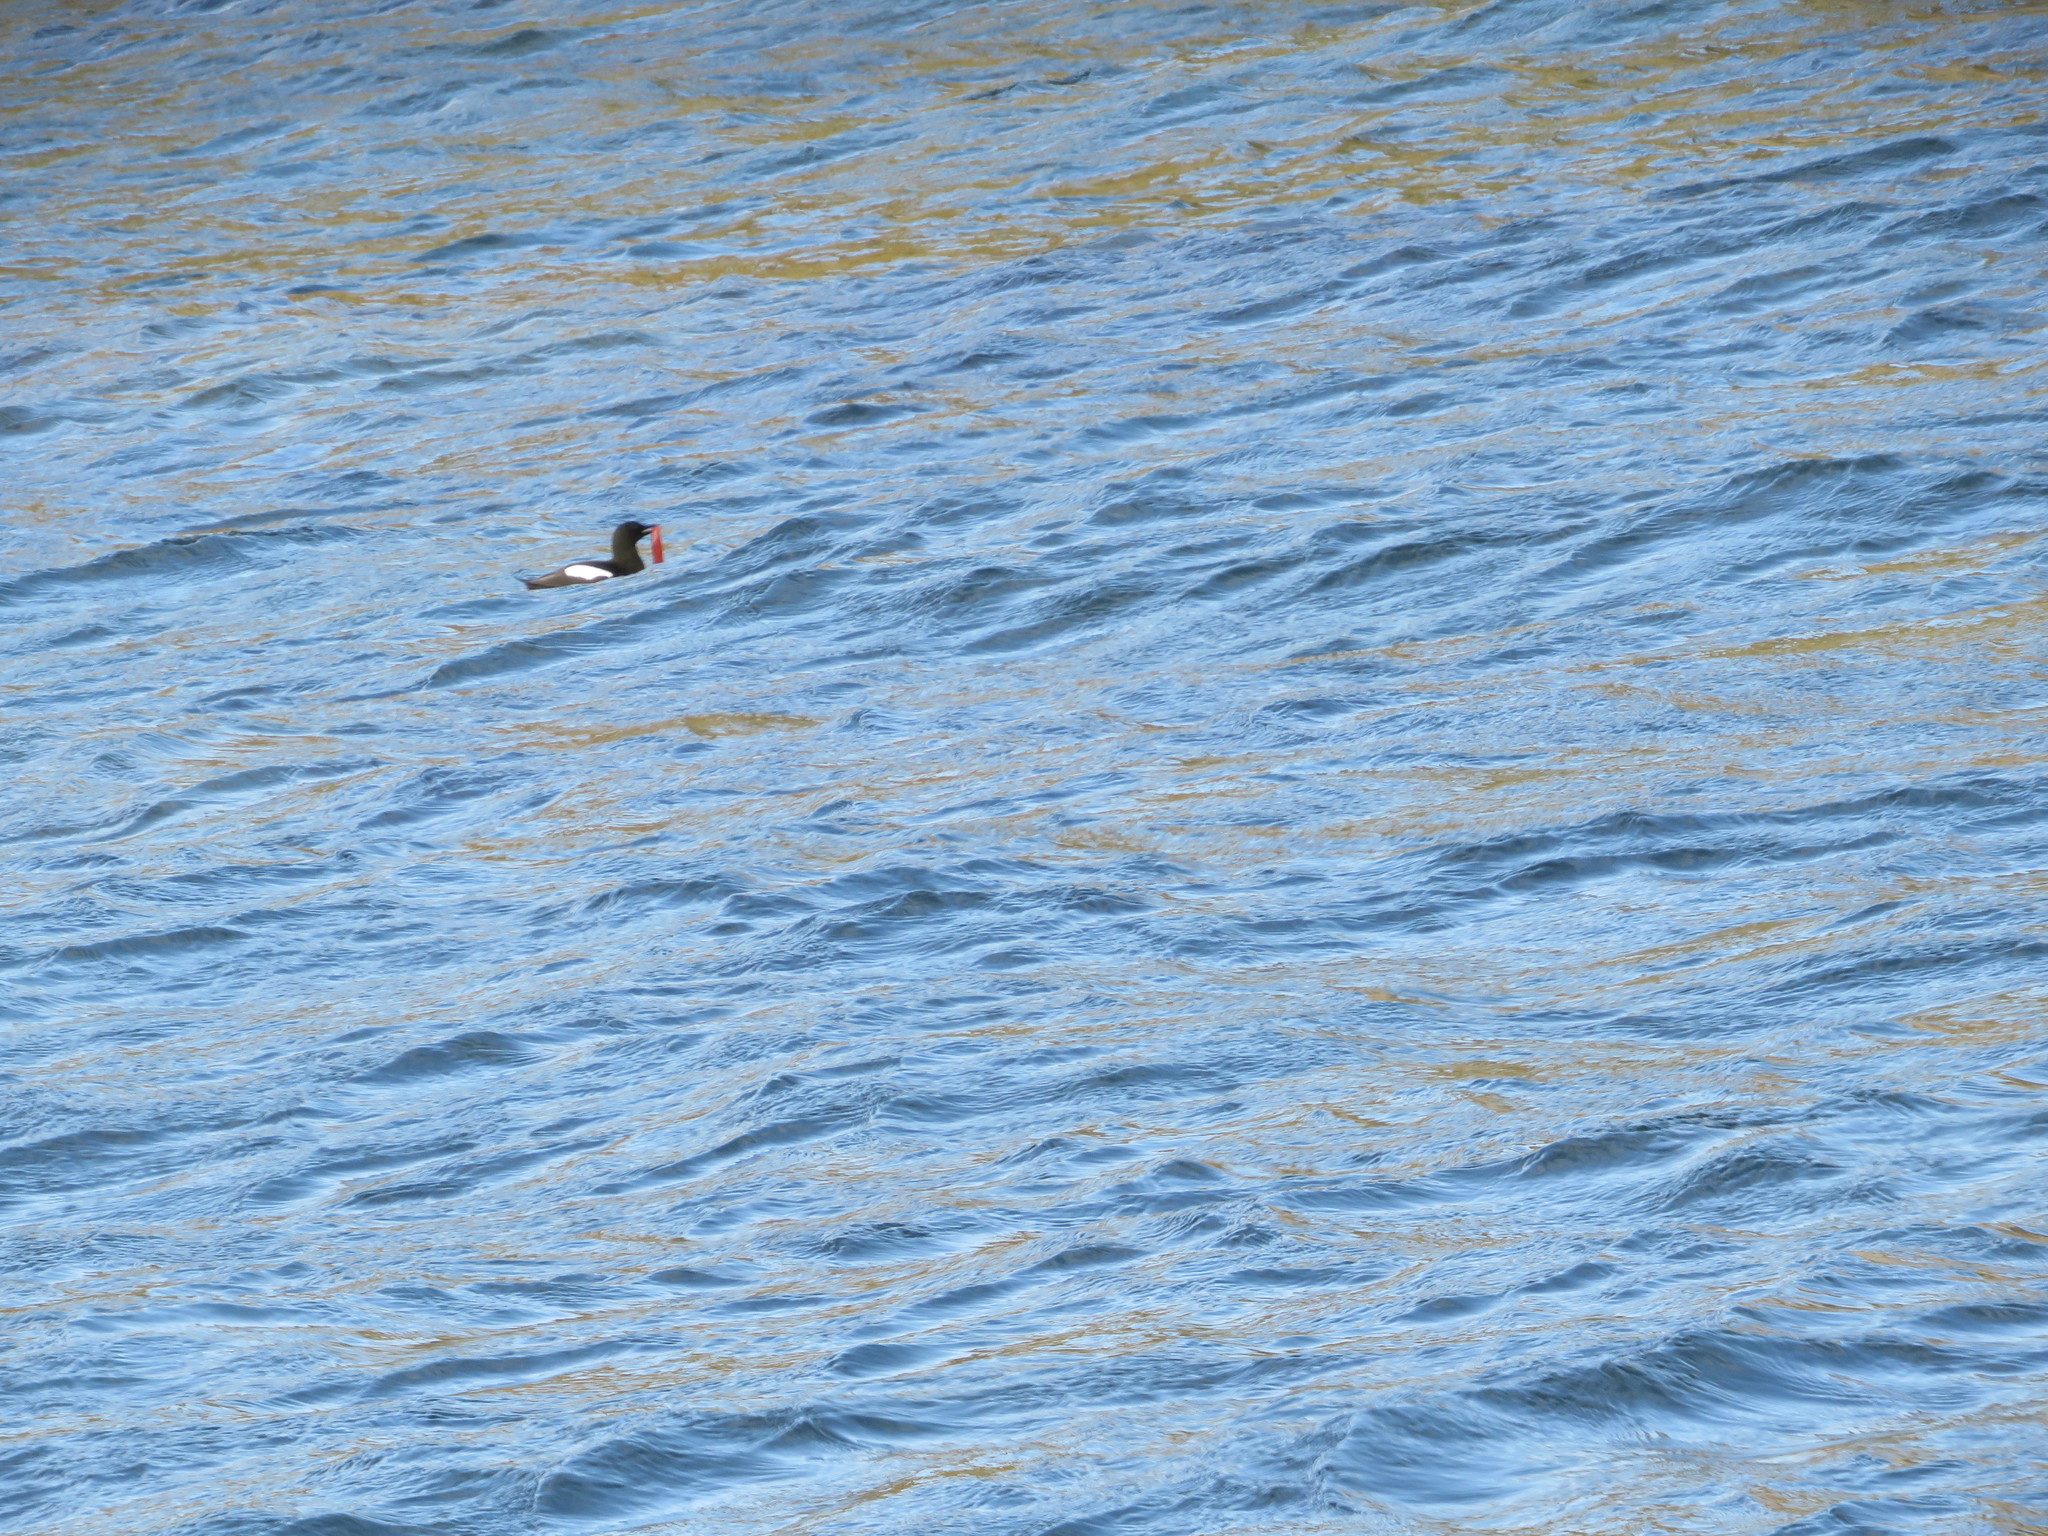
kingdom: Animalia
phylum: Chordata
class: Aves
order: Charadriiformes
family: Alcidae
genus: Cepphus
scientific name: Cepphus grylle
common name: Black guillemot
